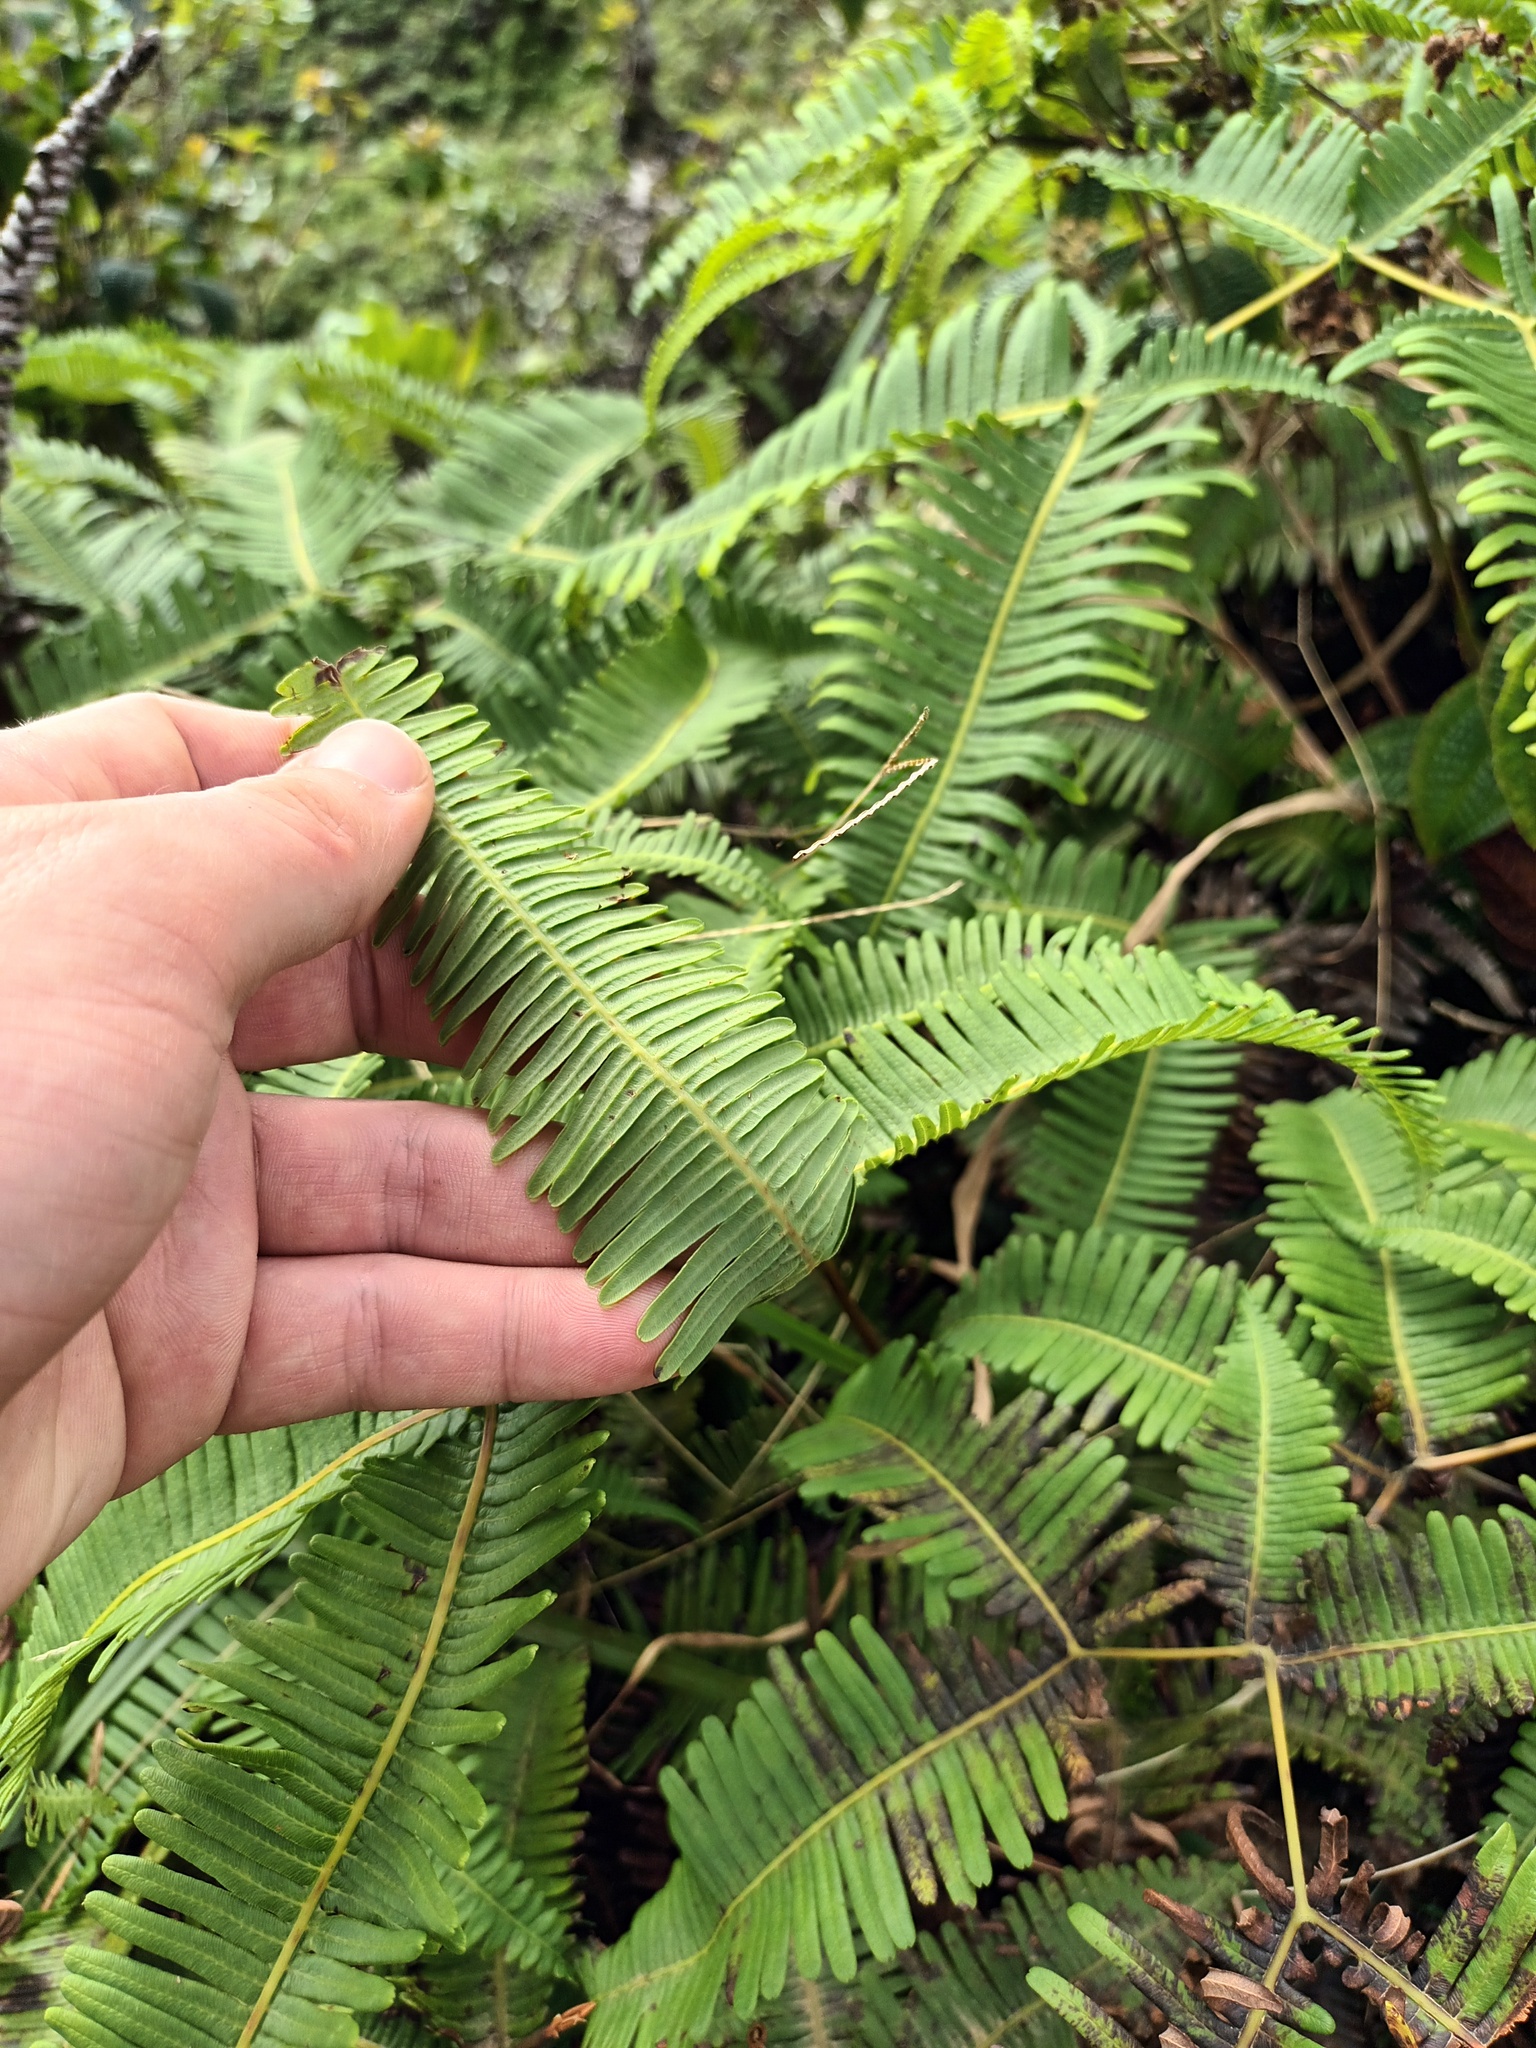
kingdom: Plantae
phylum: Tracheophyta
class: Polypodiopsida
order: Gleicheniales
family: Gleicheniaceae
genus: Dicranopteris
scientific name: Dicranopteris linearis
